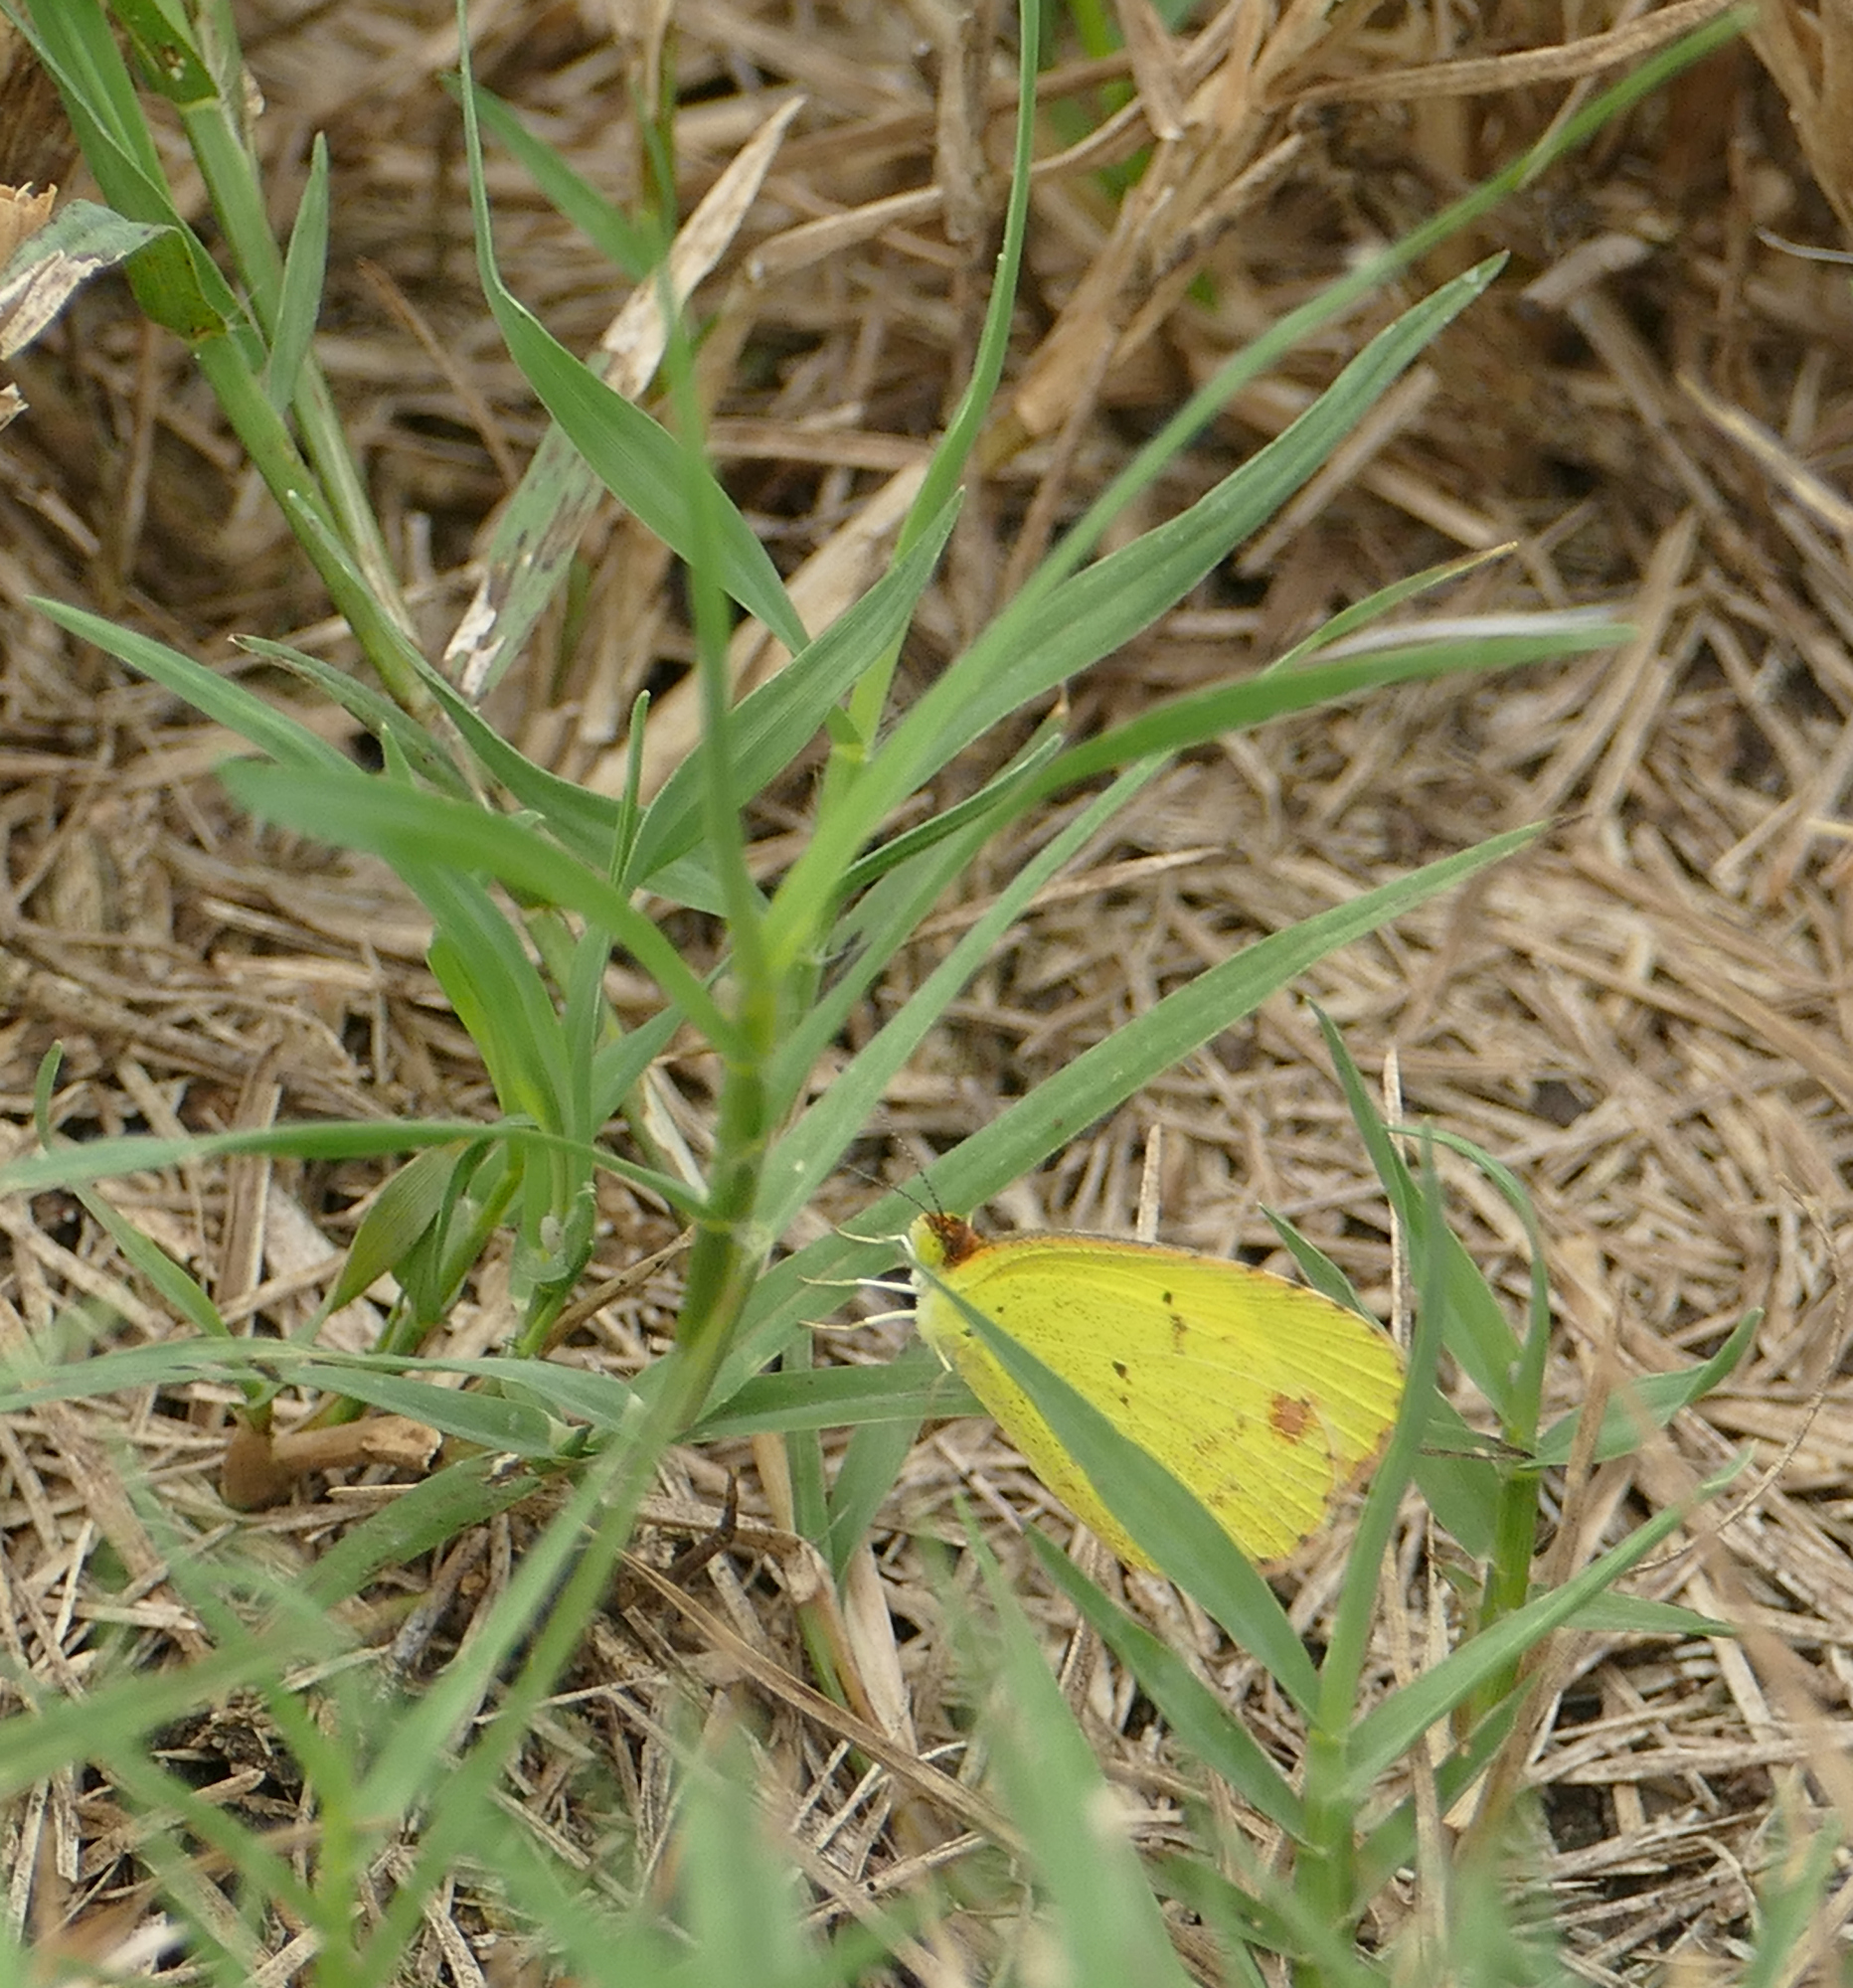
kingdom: Animalia
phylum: Arthropoda
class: Insecta
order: Lepidoptera
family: Pieridae
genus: Pyrisitia
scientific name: Pyrisitia lisa
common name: Little yellow
